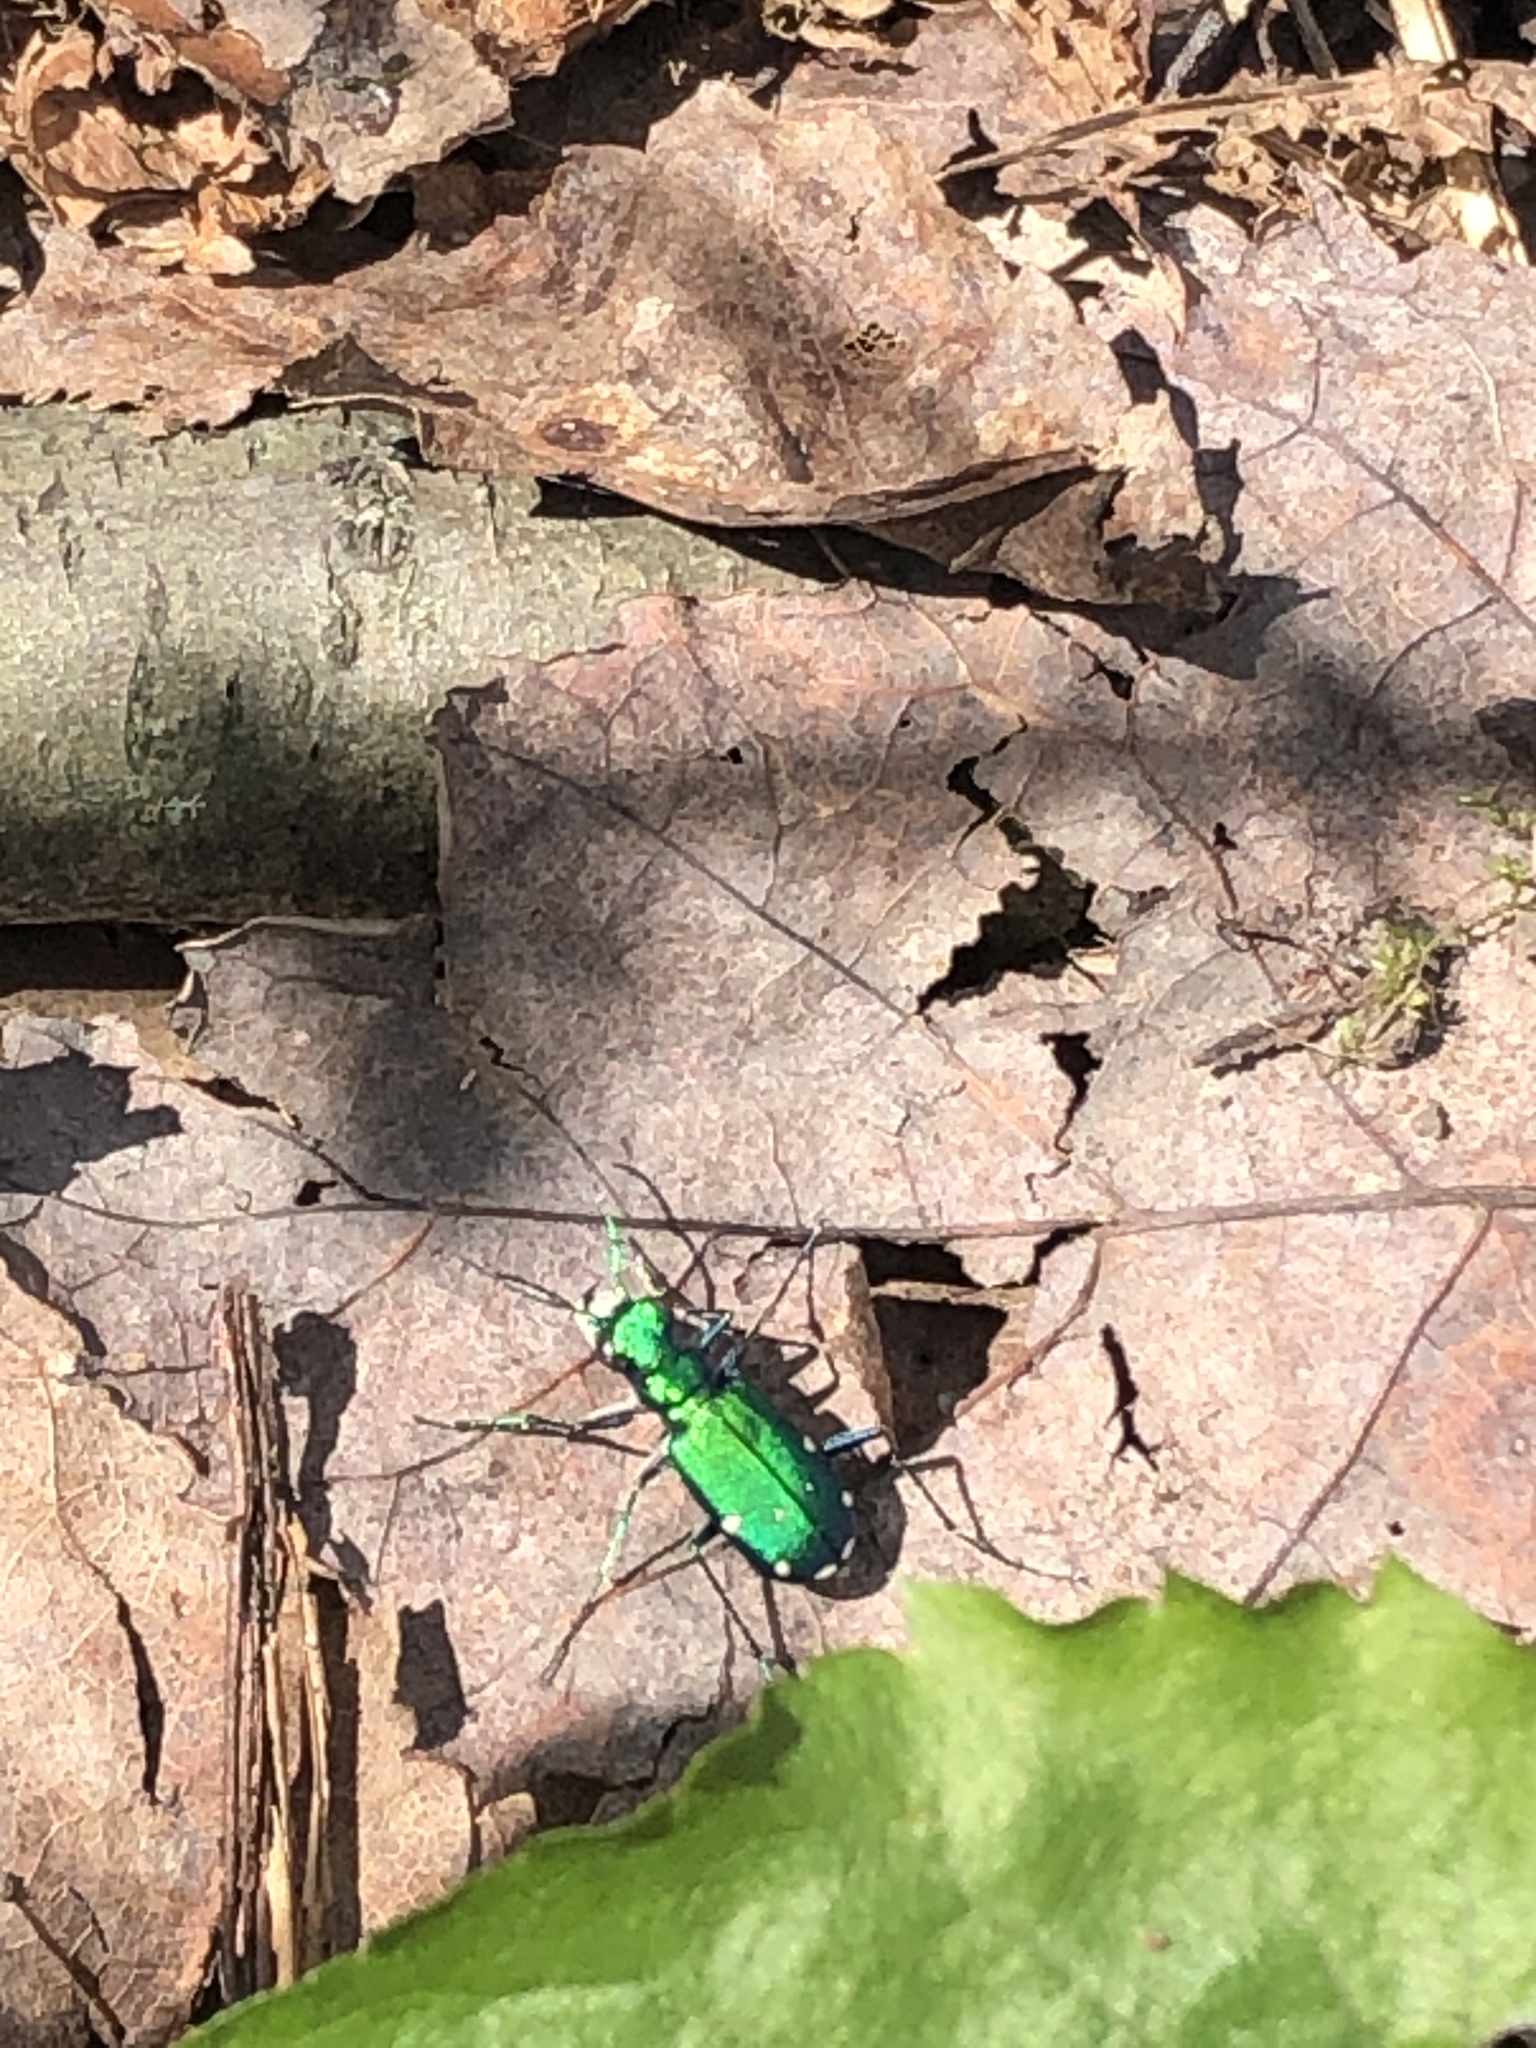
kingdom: Animalia
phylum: Arthropoda
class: Insecta
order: Coleoptera
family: Carabidae
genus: Cicindela
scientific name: Cicindela sexguttata
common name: Six-spotted tiger beetle
